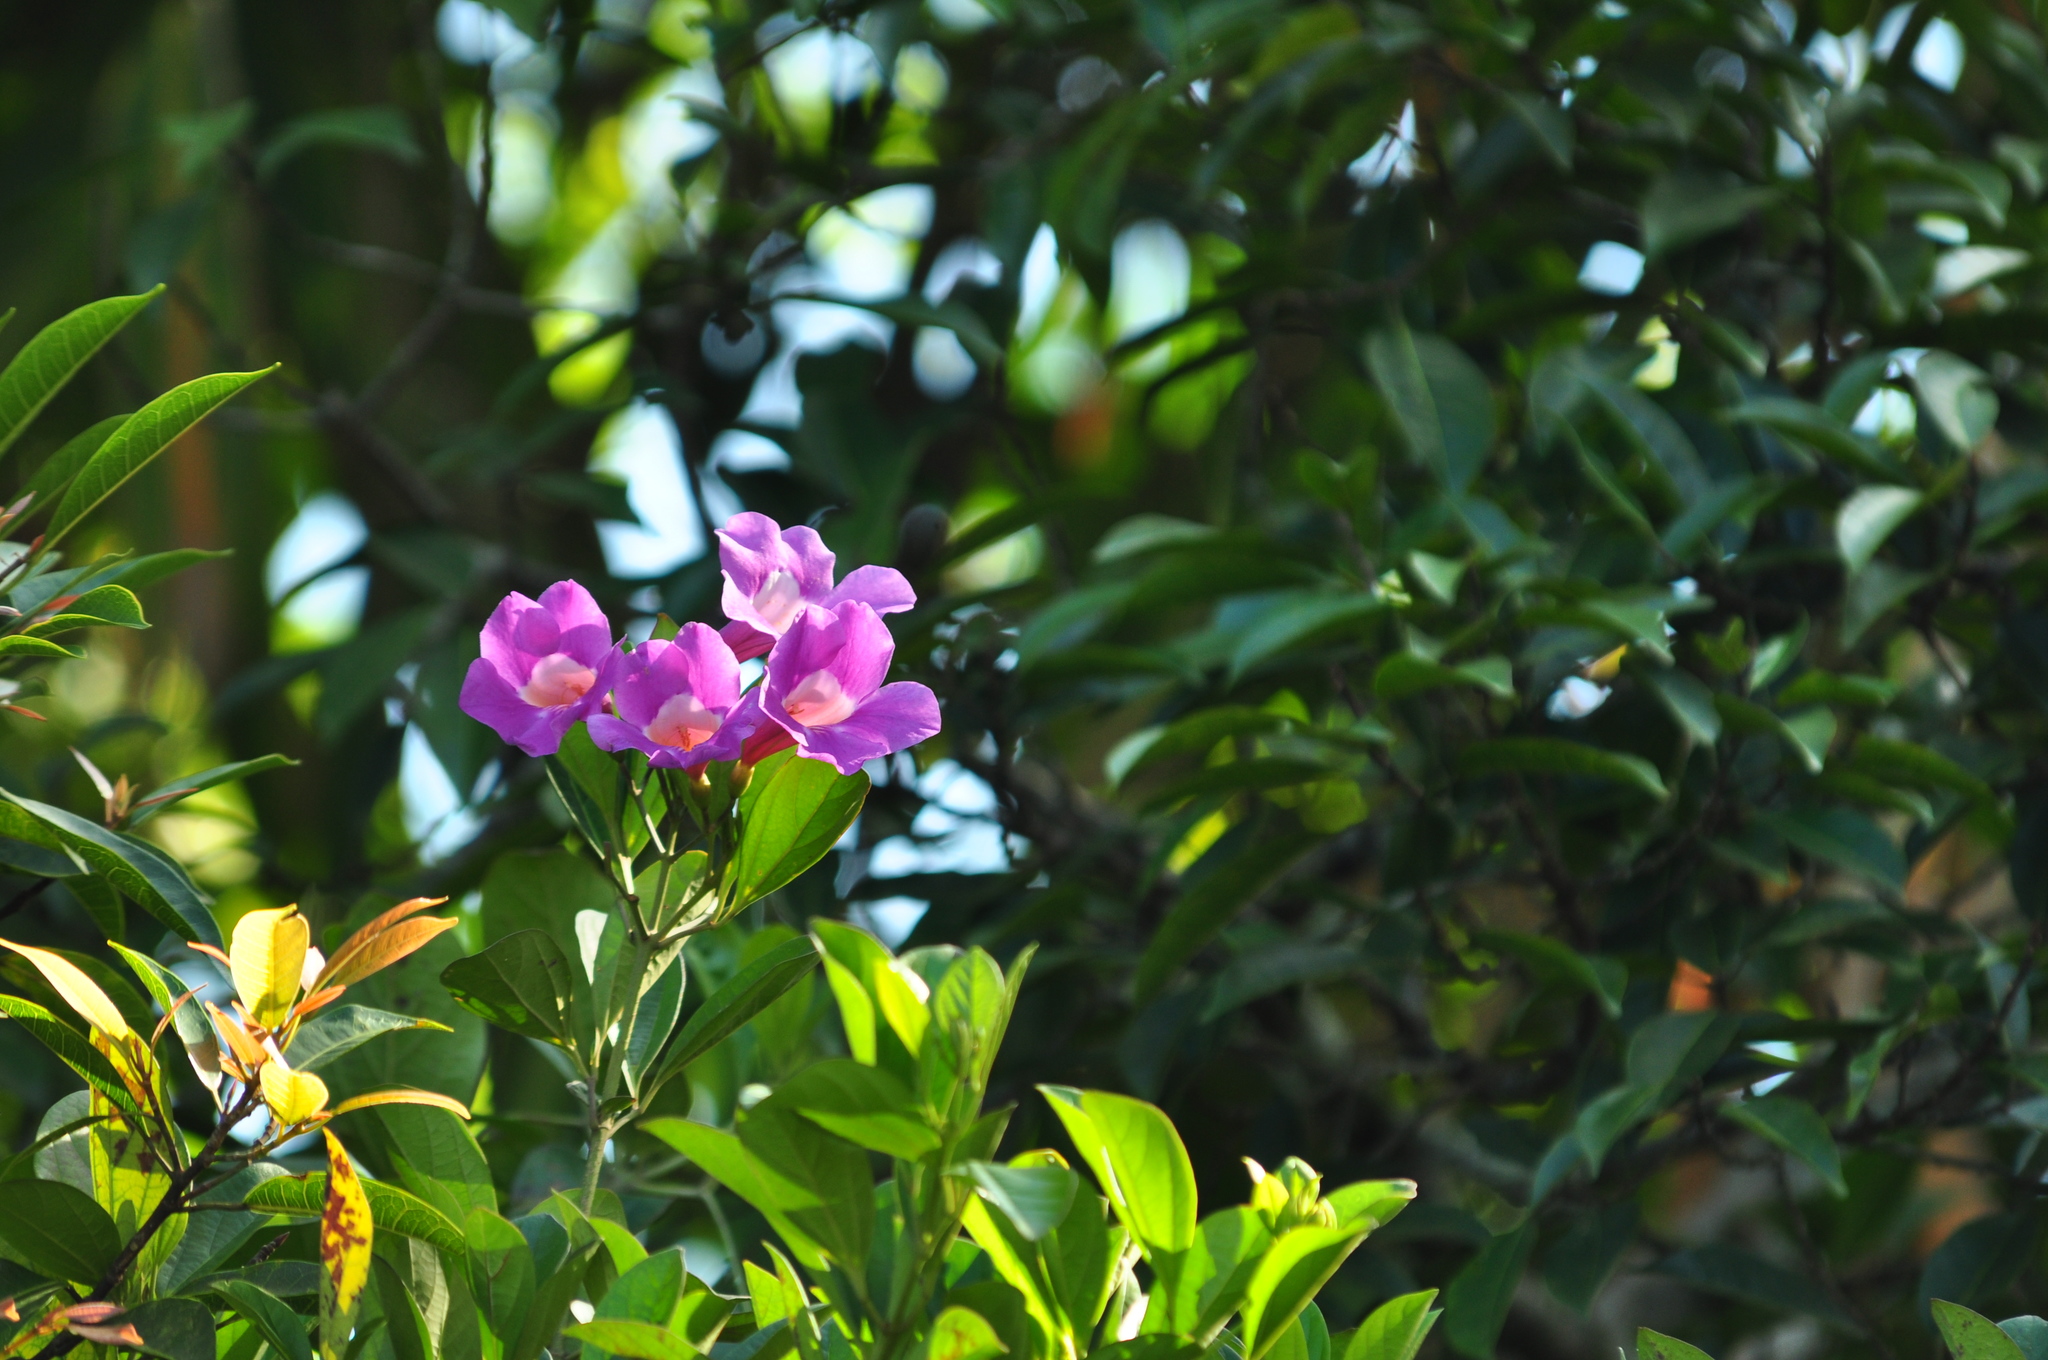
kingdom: Plantae
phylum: Tracheophyta
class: Magnoliopsida
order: Lamiales
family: Bignoniaceae
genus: Bignonia
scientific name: Bignonia magnifica
